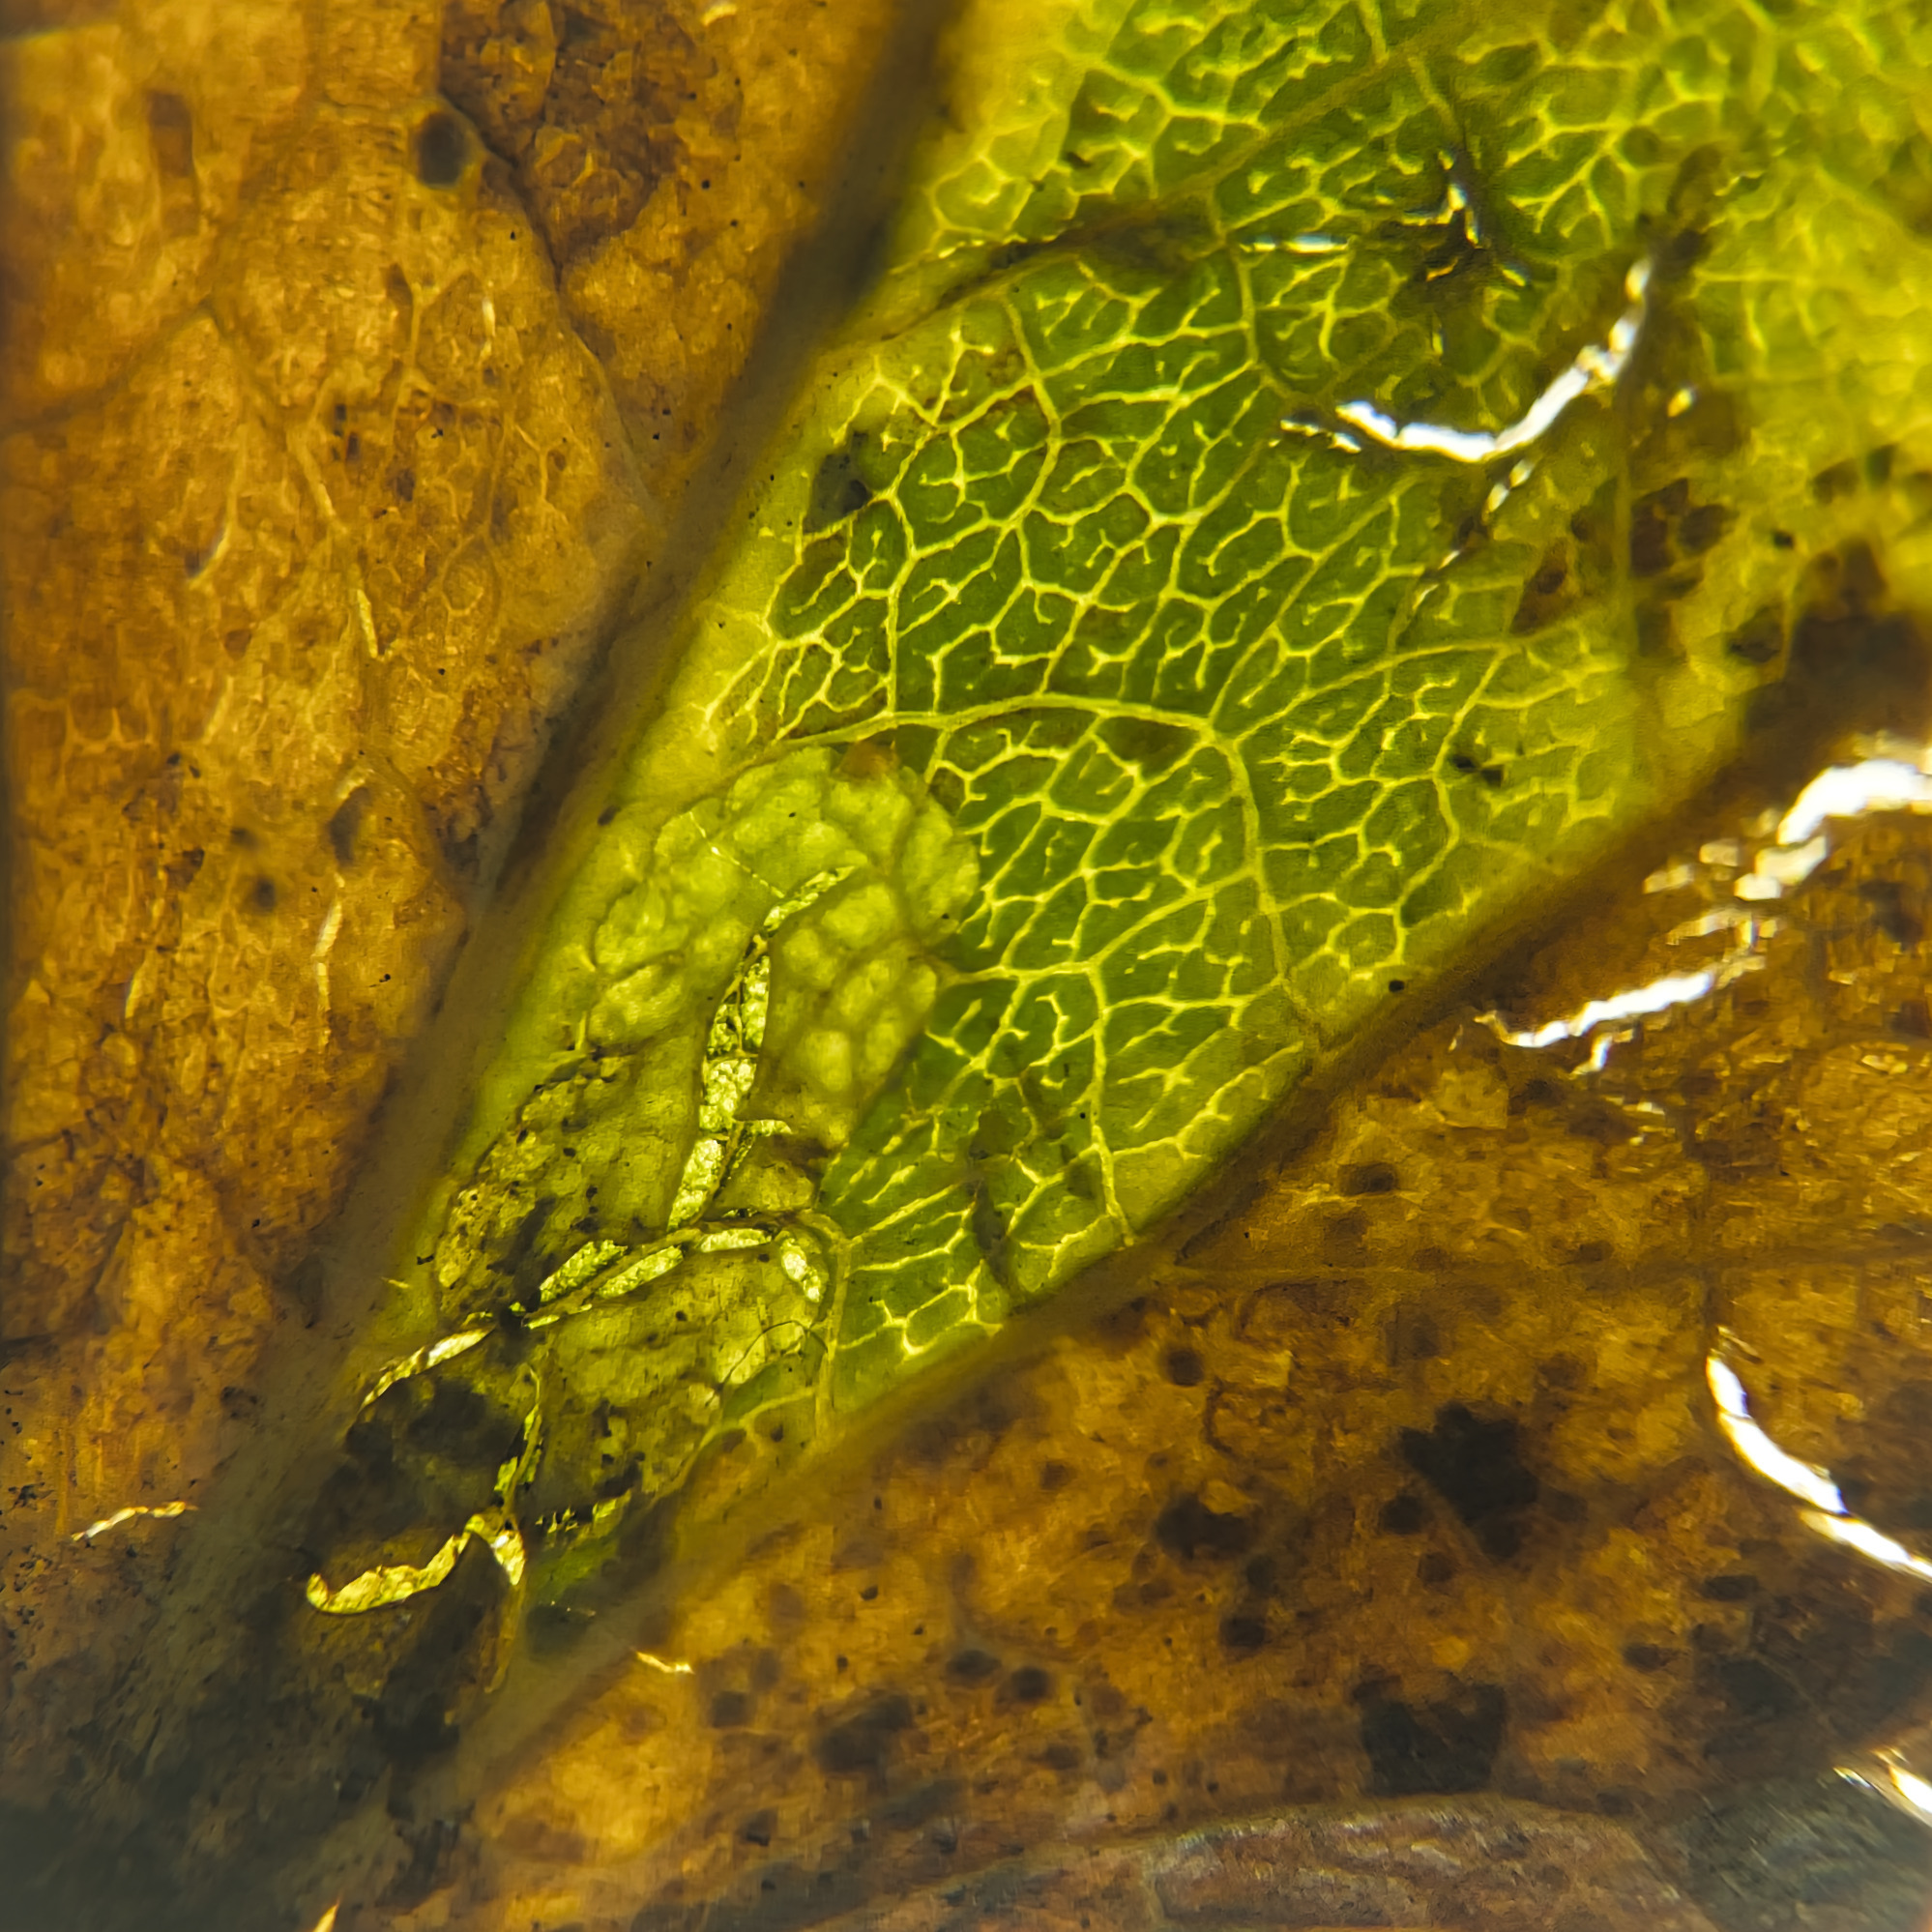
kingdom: Animalia
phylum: Arthropoda
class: Insecta
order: Lepidoptera
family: Nepticulidae
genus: Ectoedemia
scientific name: Ectoedemia argyropeza
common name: Virgin pigmy
